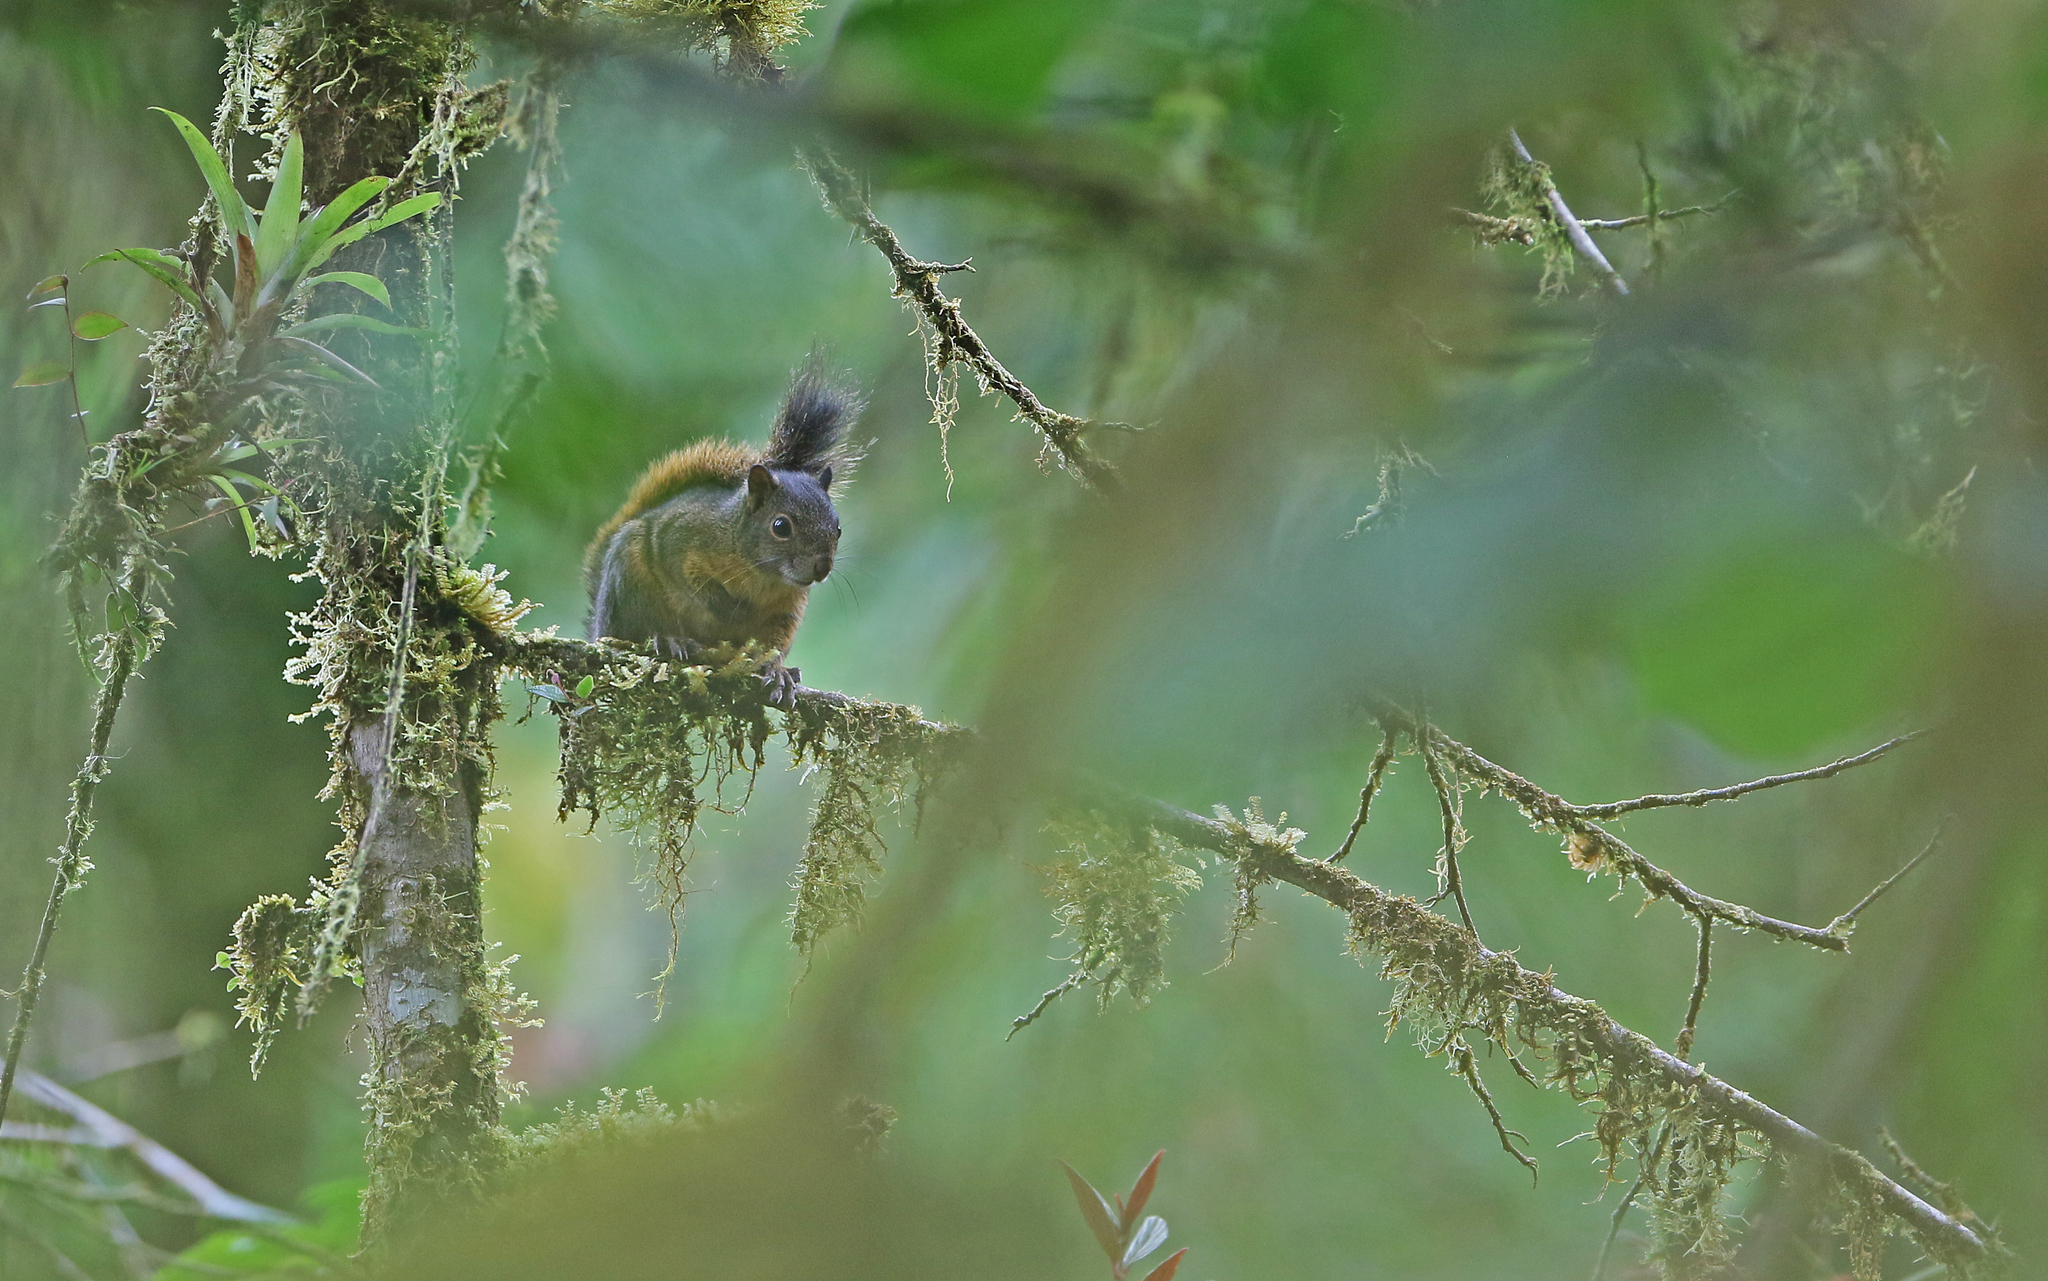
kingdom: Animalia
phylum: Chordata
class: Mammalia
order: Rodentia
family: Sciuridae
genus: Sciurus
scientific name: Sciurus granatensis
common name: Red-tailed squirrel
